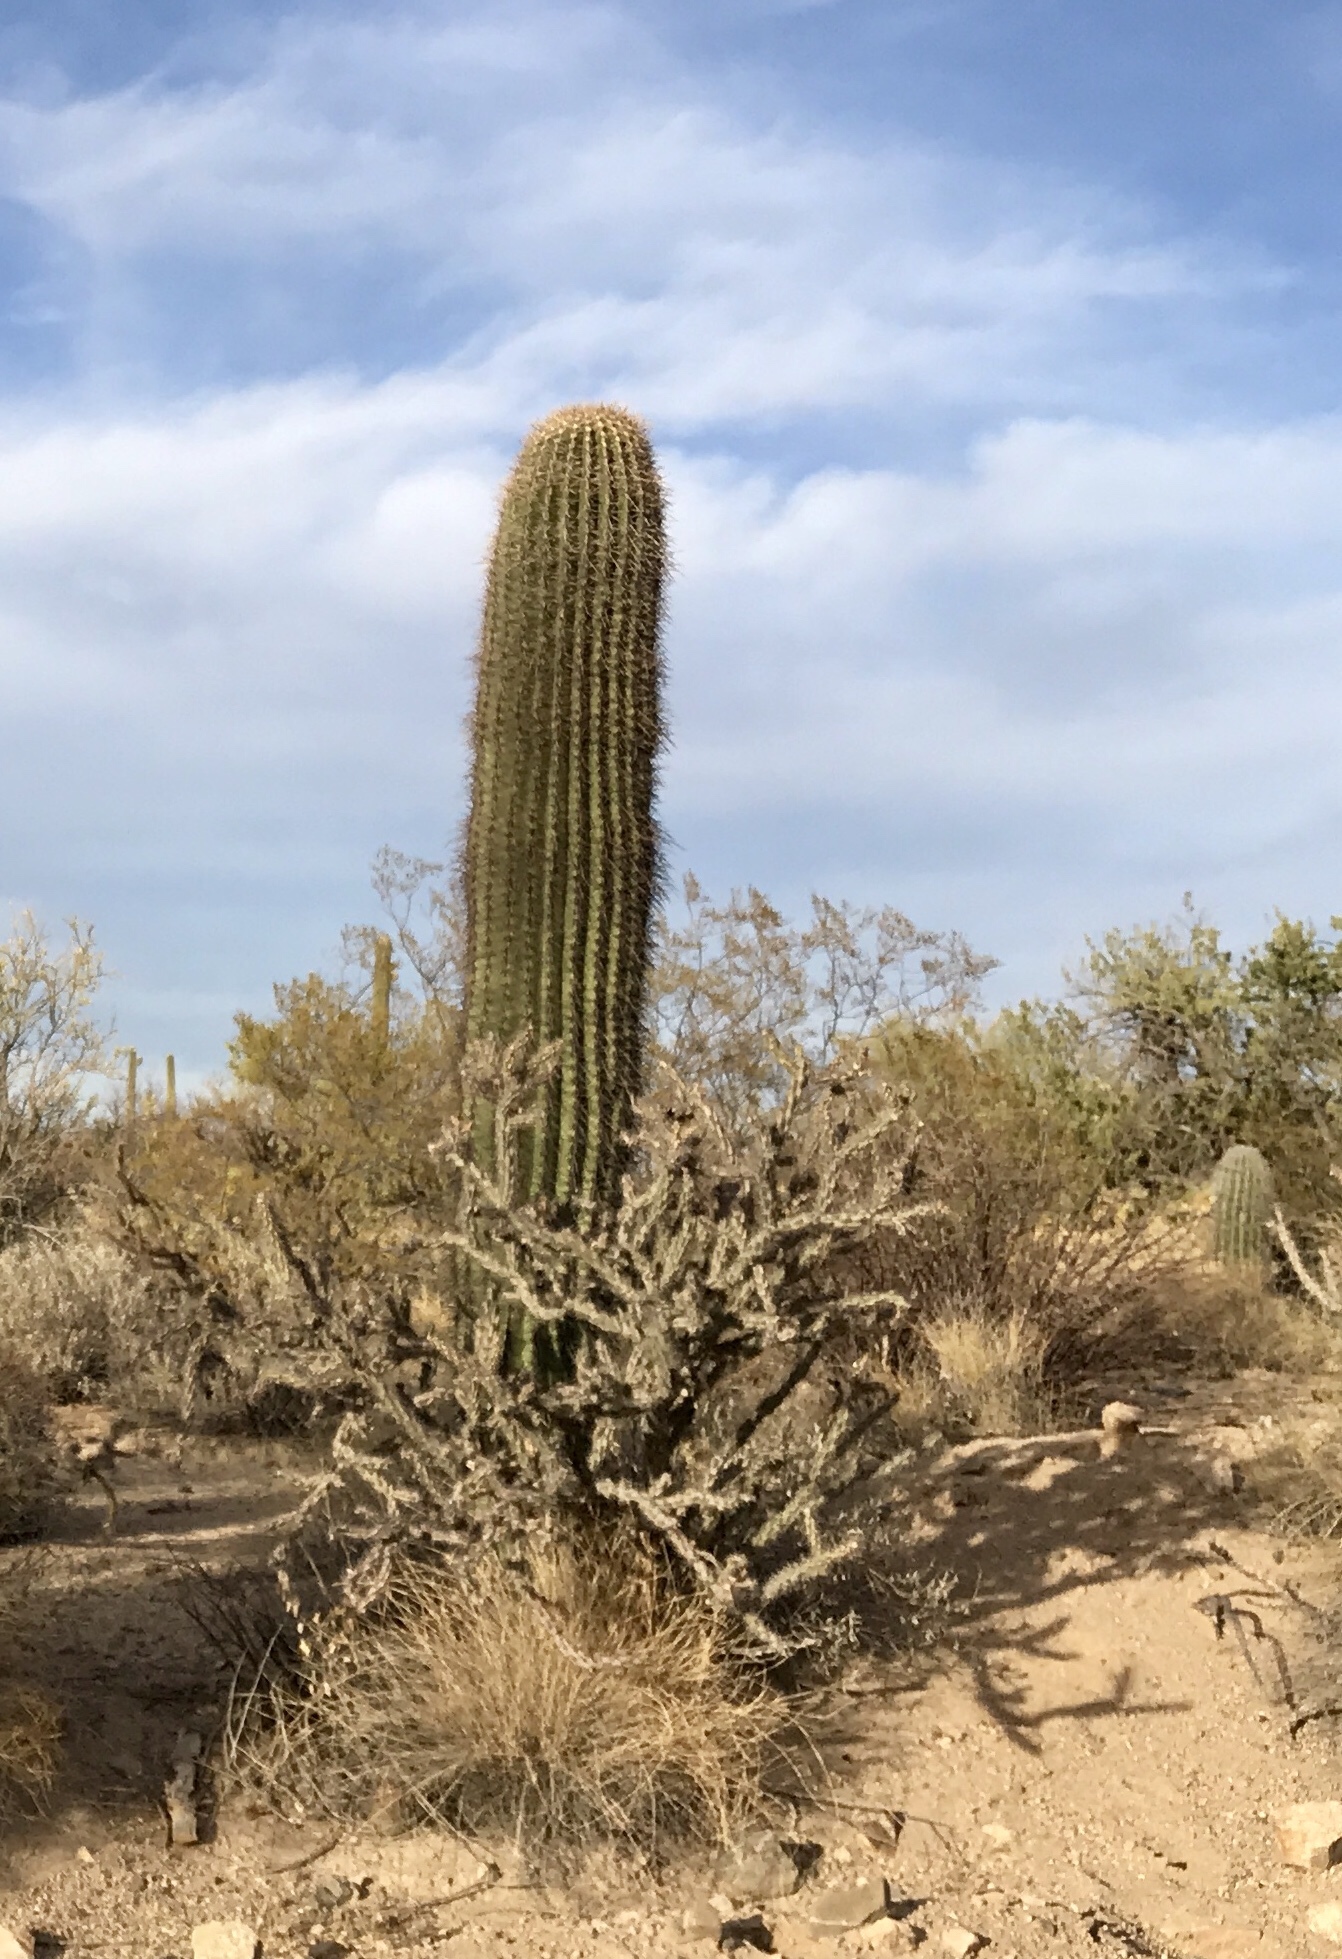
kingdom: Plantae
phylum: Tracheophyta
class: Magnoliopsida
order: Caryophyllales
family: Cactaceae
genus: Carnegiea
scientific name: Carnegiea gigantea
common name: Saguaro
